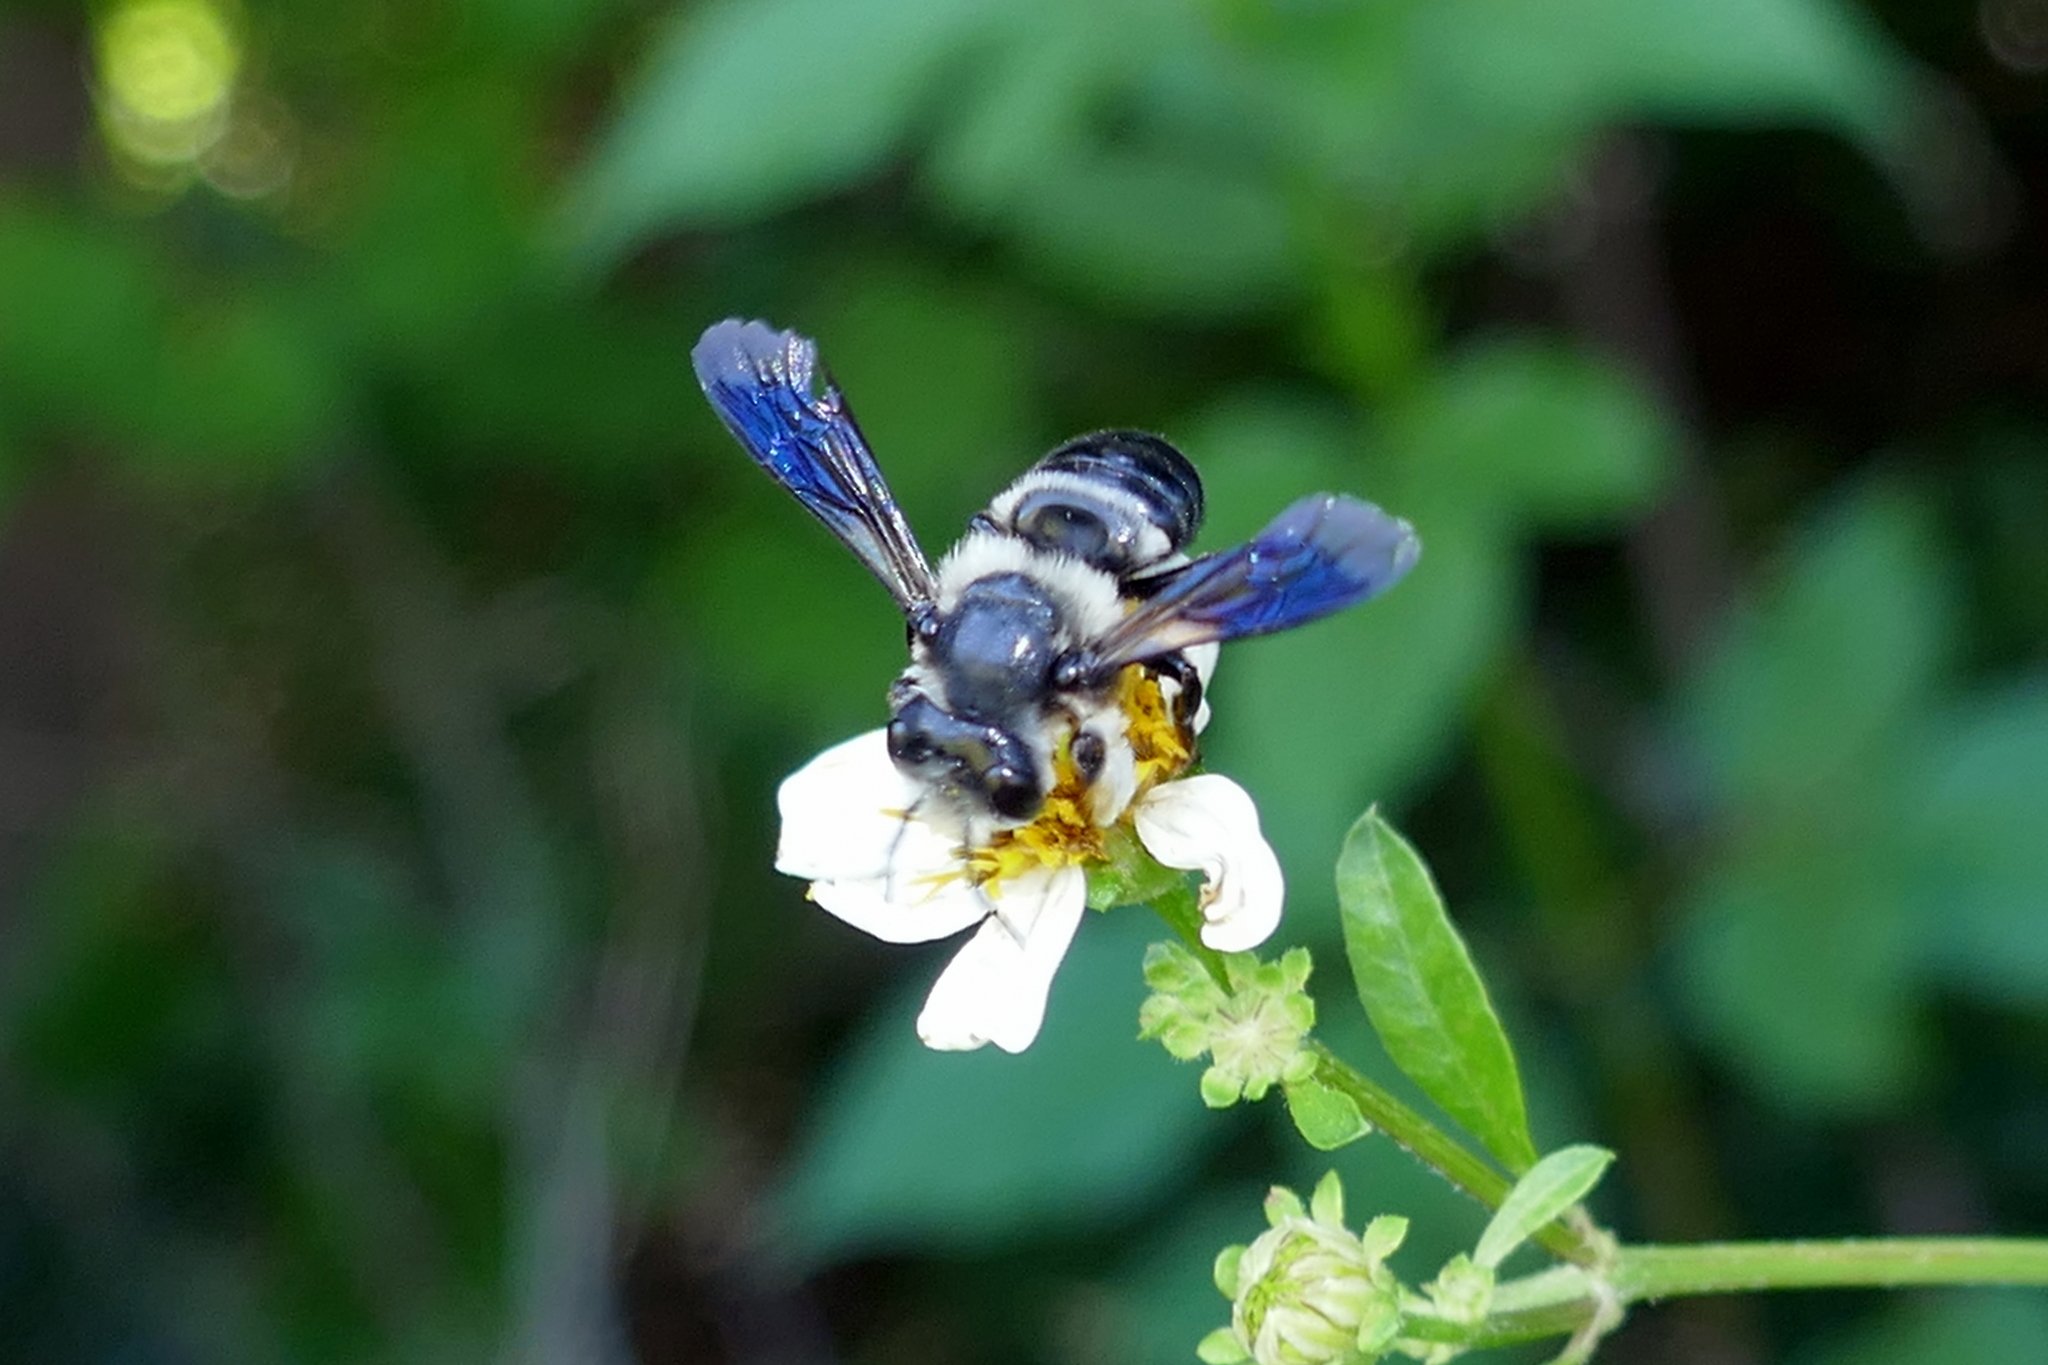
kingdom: Animalia
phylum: Arthropoda
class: Insecta
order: Hymenoptera
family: Megachilidae
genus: Megachile
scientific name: Megachile xylocopoides
